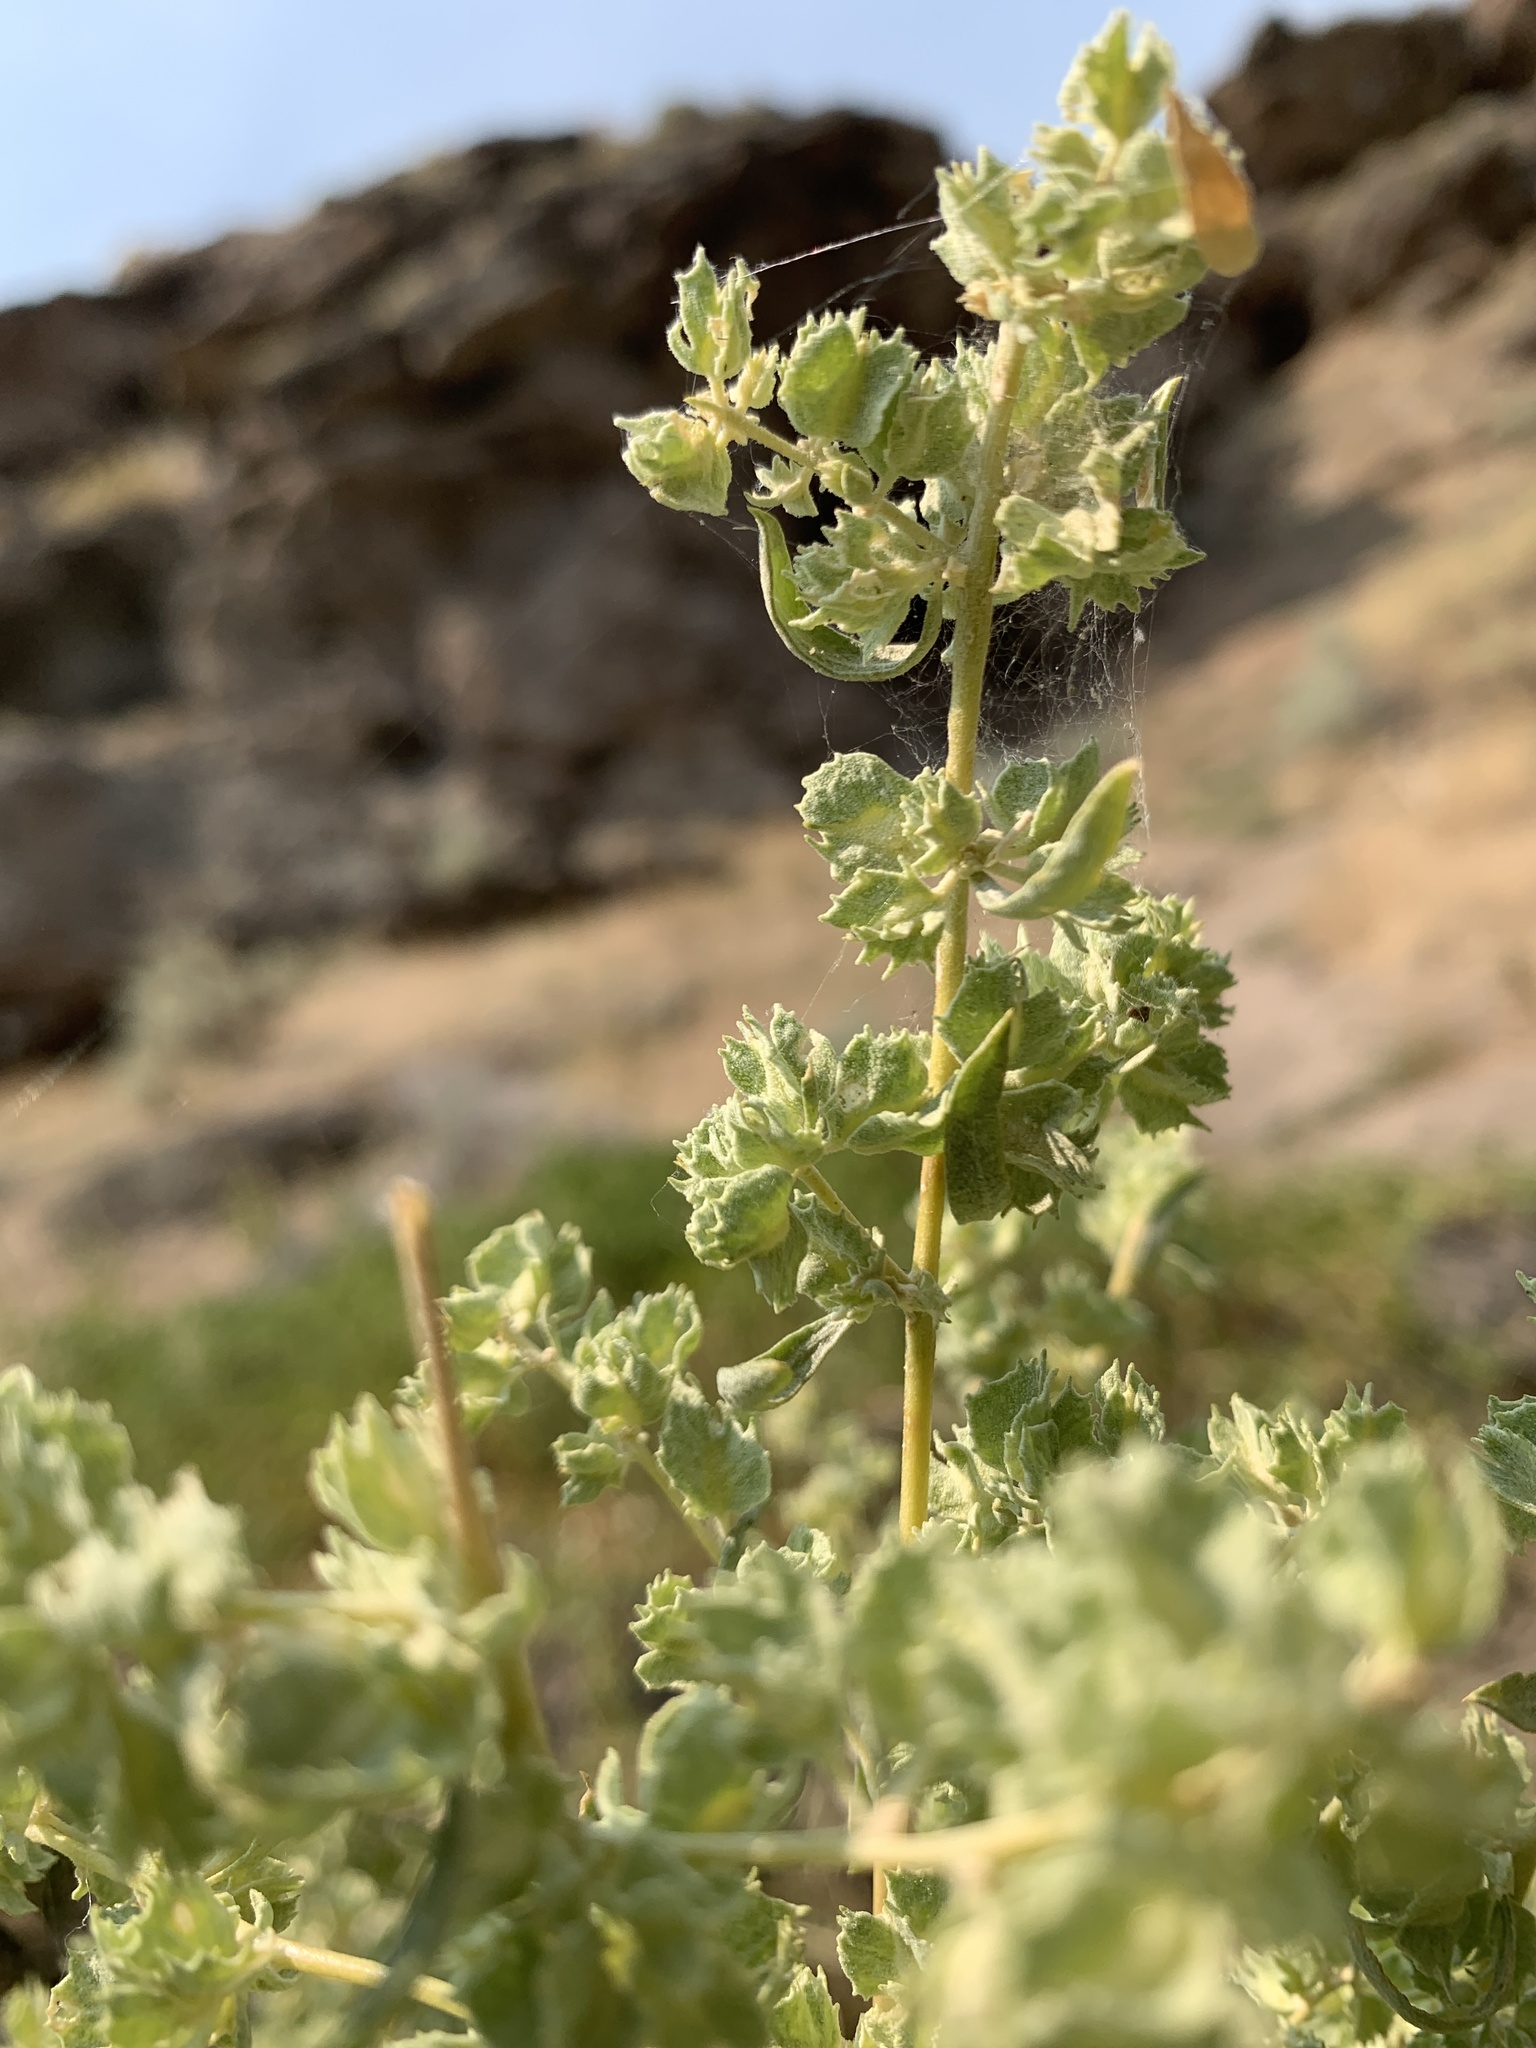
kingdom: Plantae
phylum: Tracheophyta
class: Magnoliopsida
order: Caryophyllales
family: Amaranthaceae
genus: Atriplex
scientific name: Atriplex canescens
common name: Four-wing saltbush
